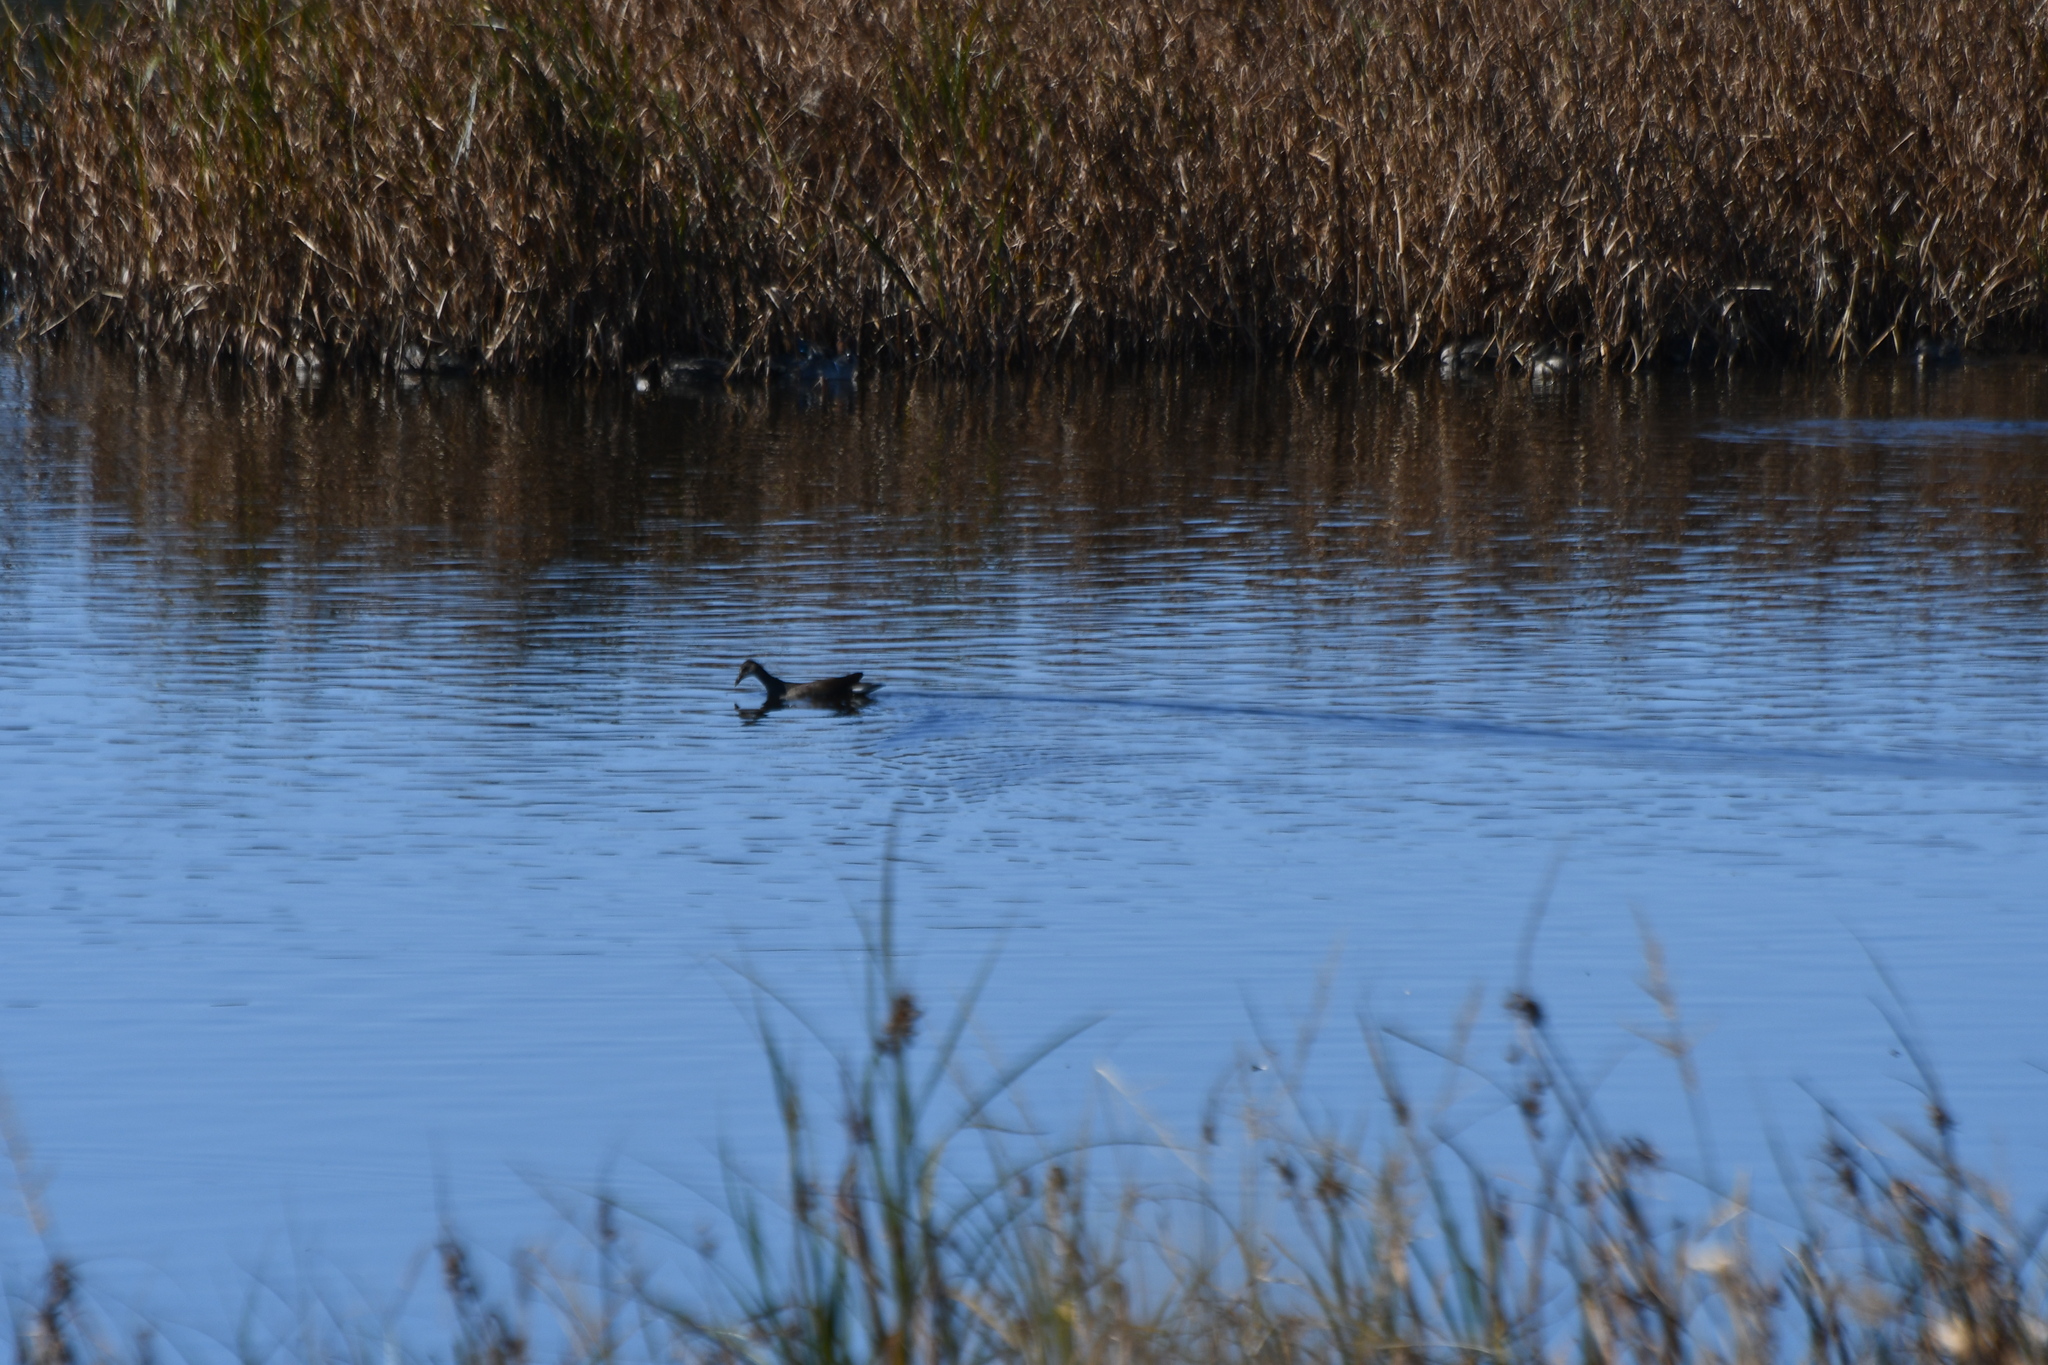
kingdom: Animalia
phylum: Chordata
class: Aves
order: Gruiformes
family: Rallidae
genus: Gallinula
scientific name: Gallinula chloropus
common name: Common moorhen
